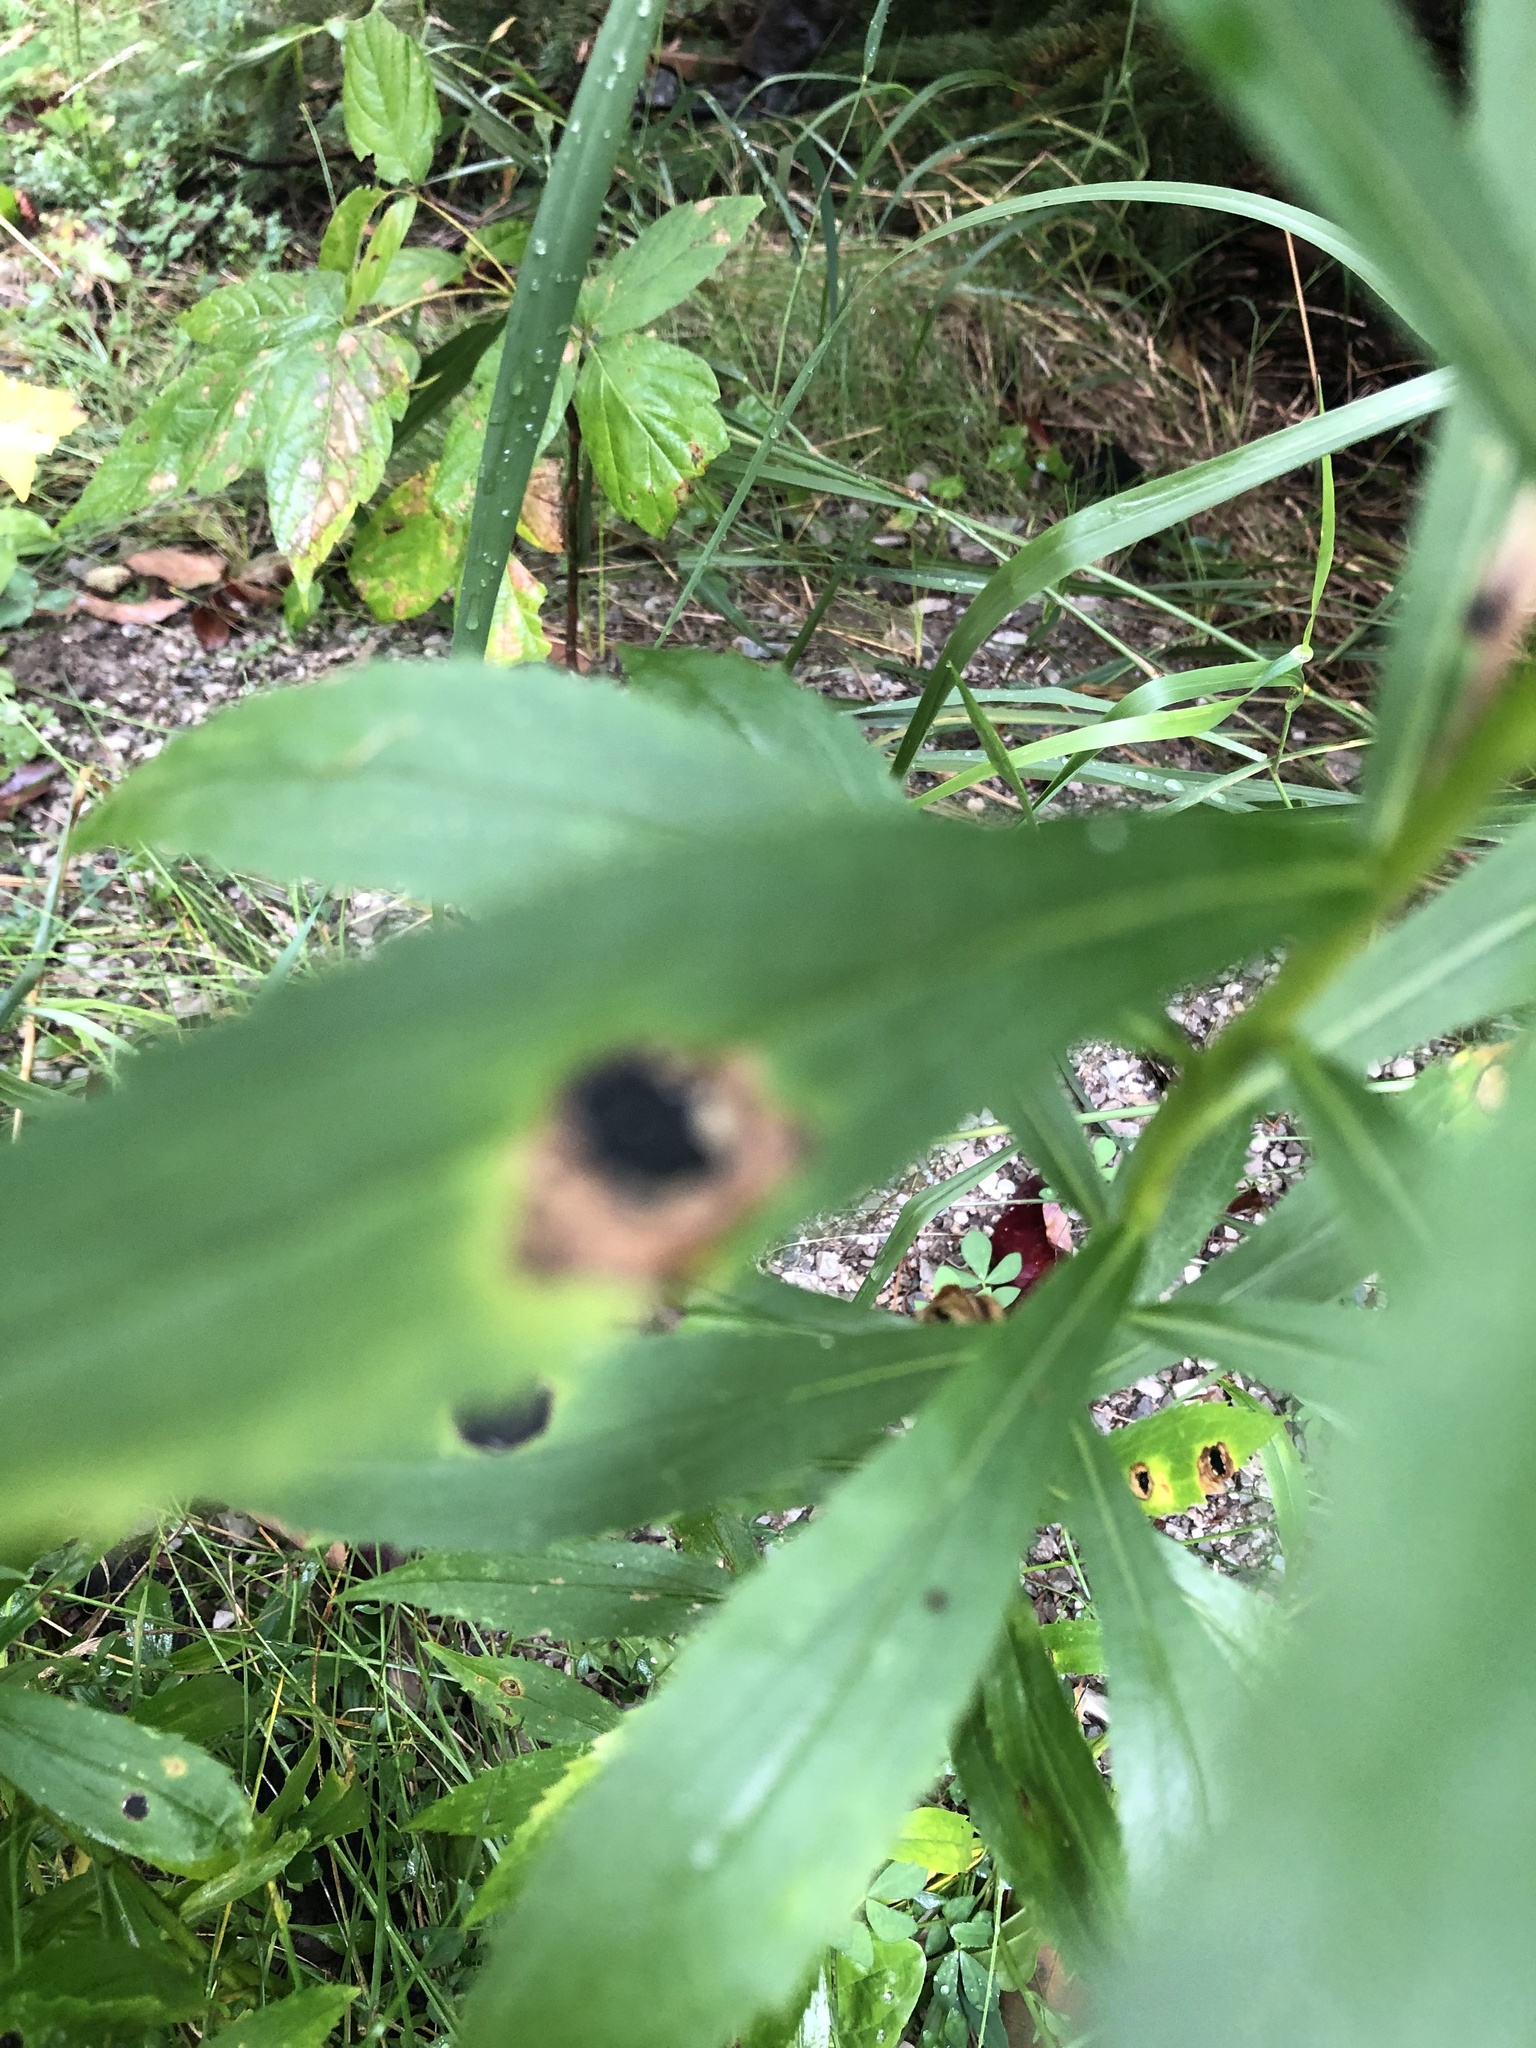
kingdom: Animalia
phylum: Arthropoda
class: Insecta
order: Diptera
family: Cecidomyiidae
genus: Asteromyia
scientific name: Asteromyia carbonifera
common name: Carbonifera goldenrod gall midge
